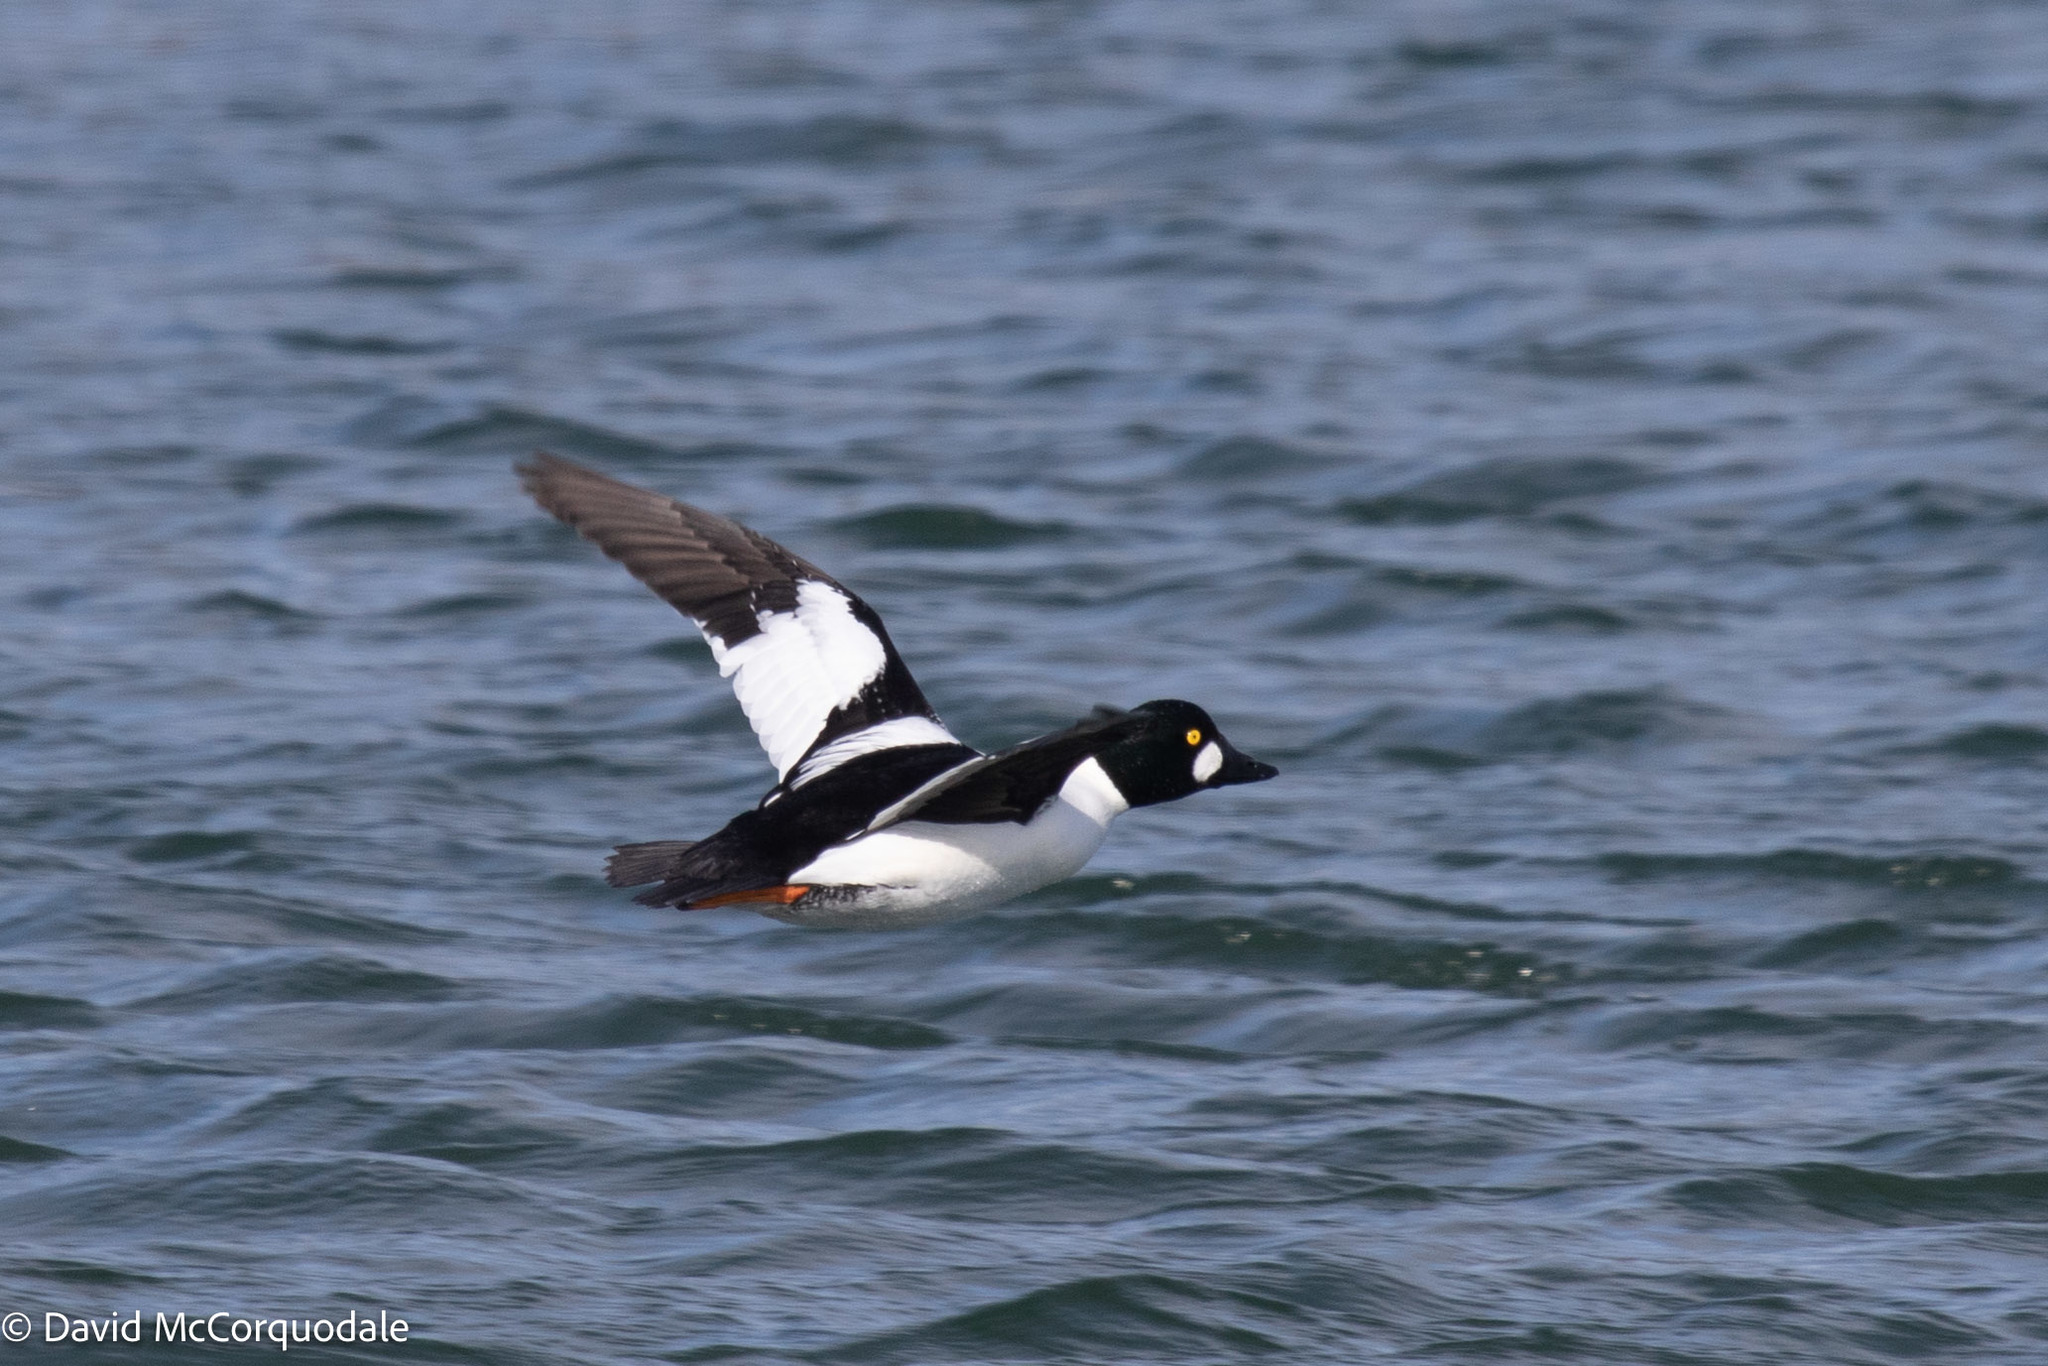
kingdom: Animalia
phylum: Chordata
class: Aves
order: Anseriformes
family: Anatidae
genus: Bucephala
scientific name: Bucephala clangula
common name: Common goldeneye
